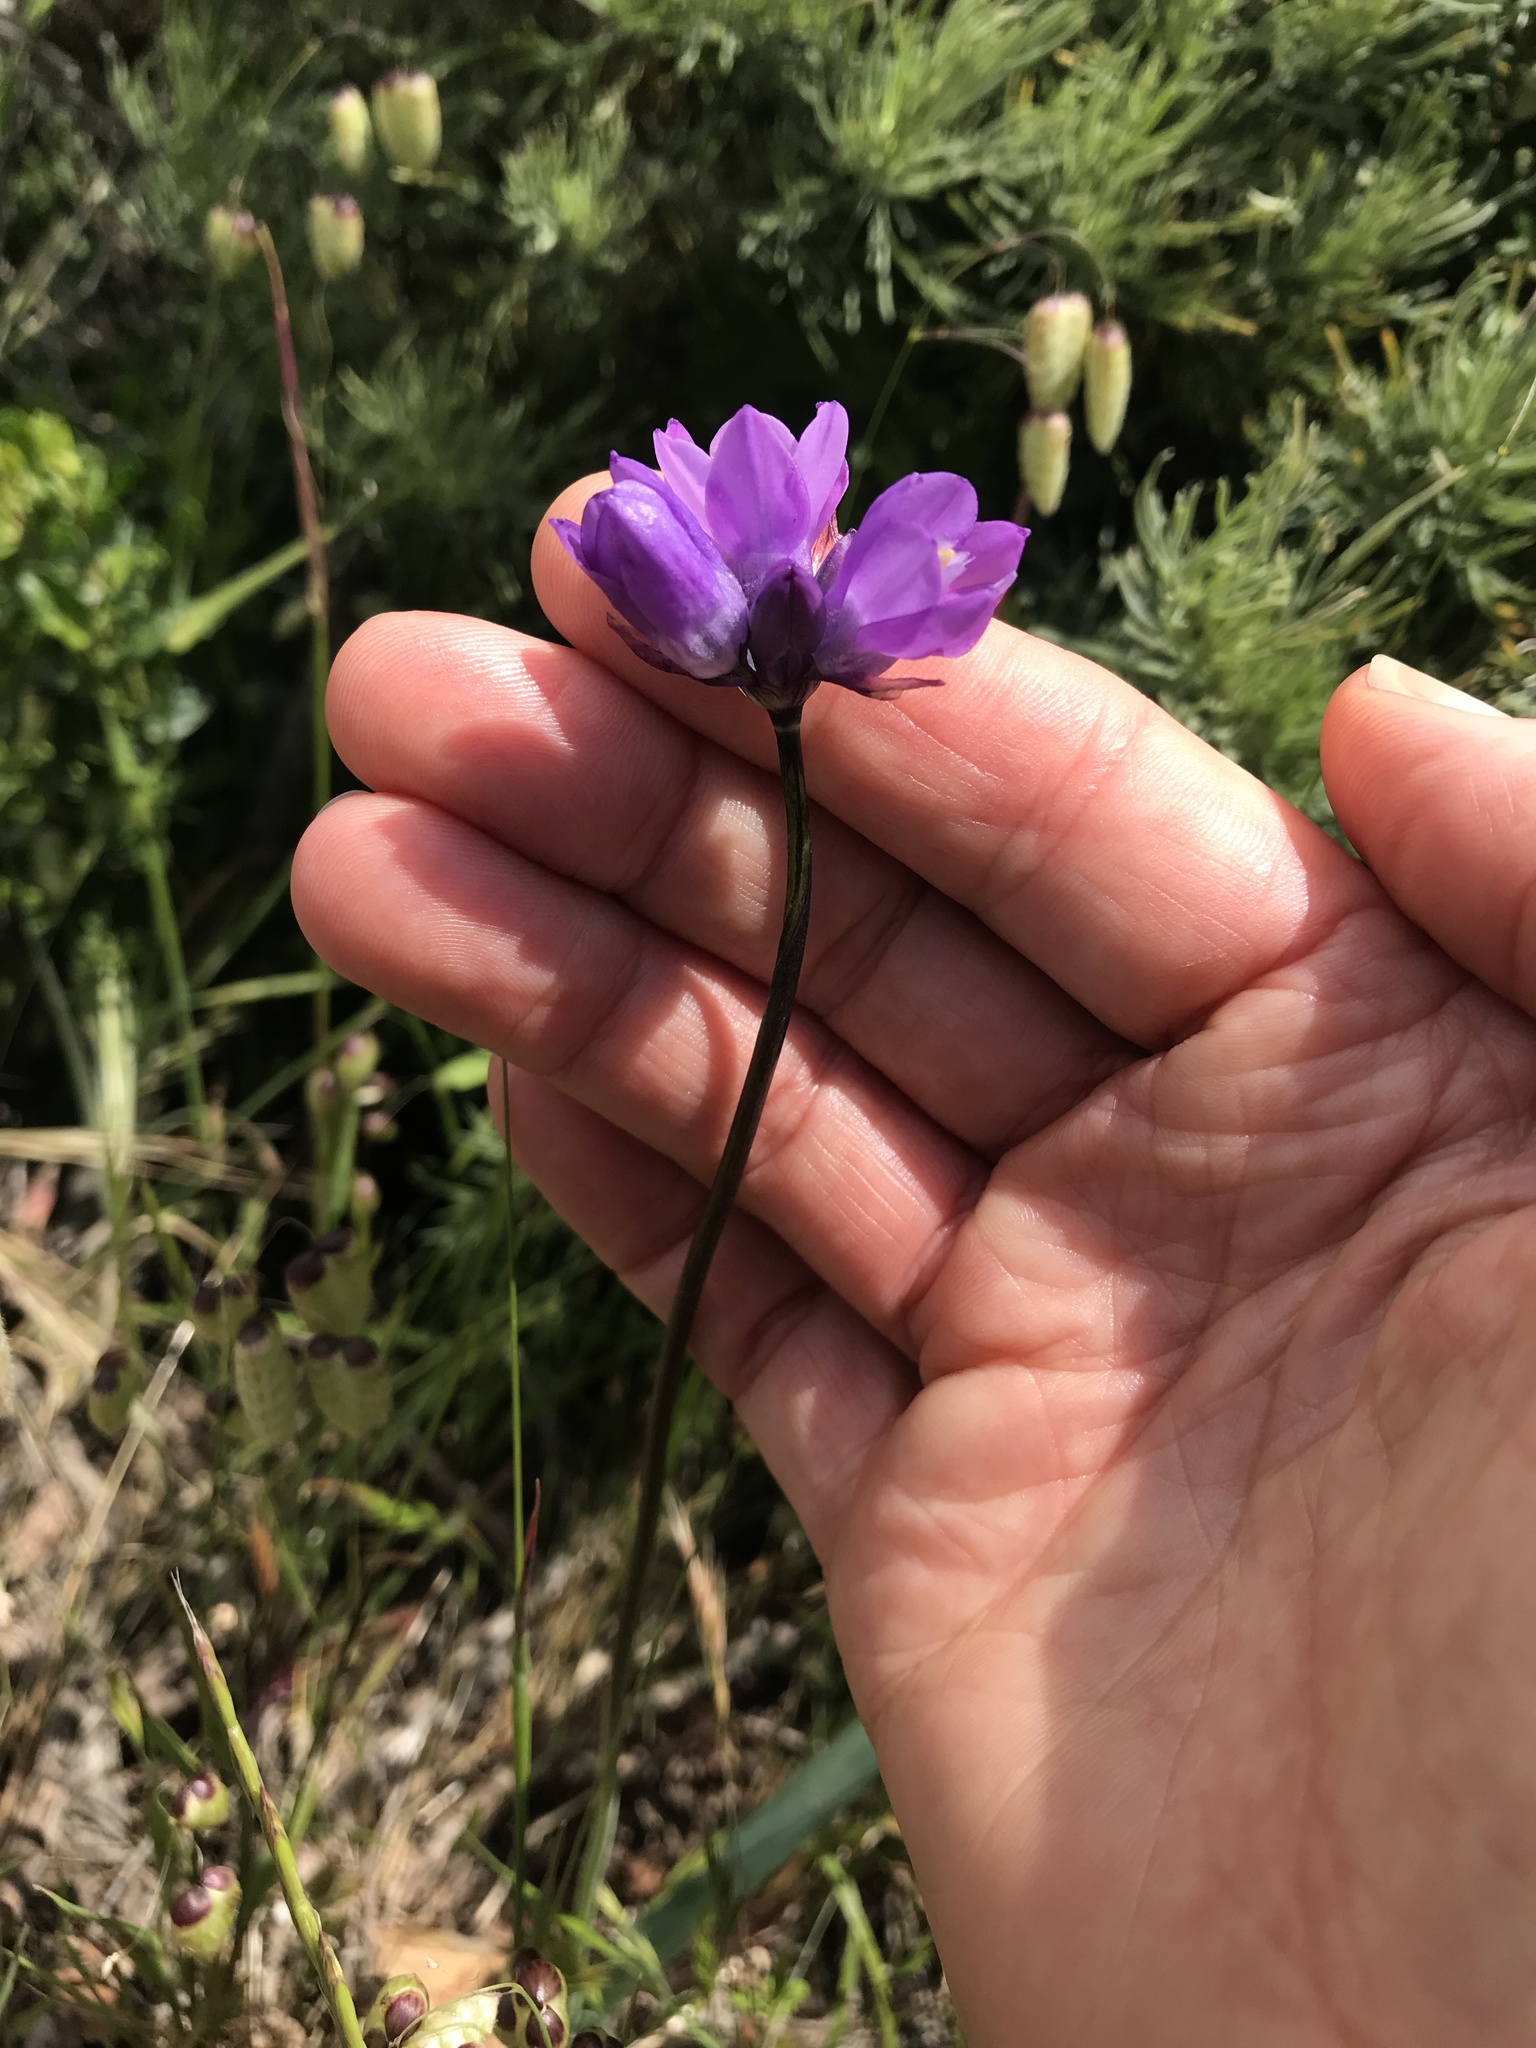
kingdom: Plantae
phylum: Tracheophyta
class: Liliopsida
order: Asparagales
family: Asparagaceae
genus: Dipterostemon
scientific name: Dipterostemon capitatus
